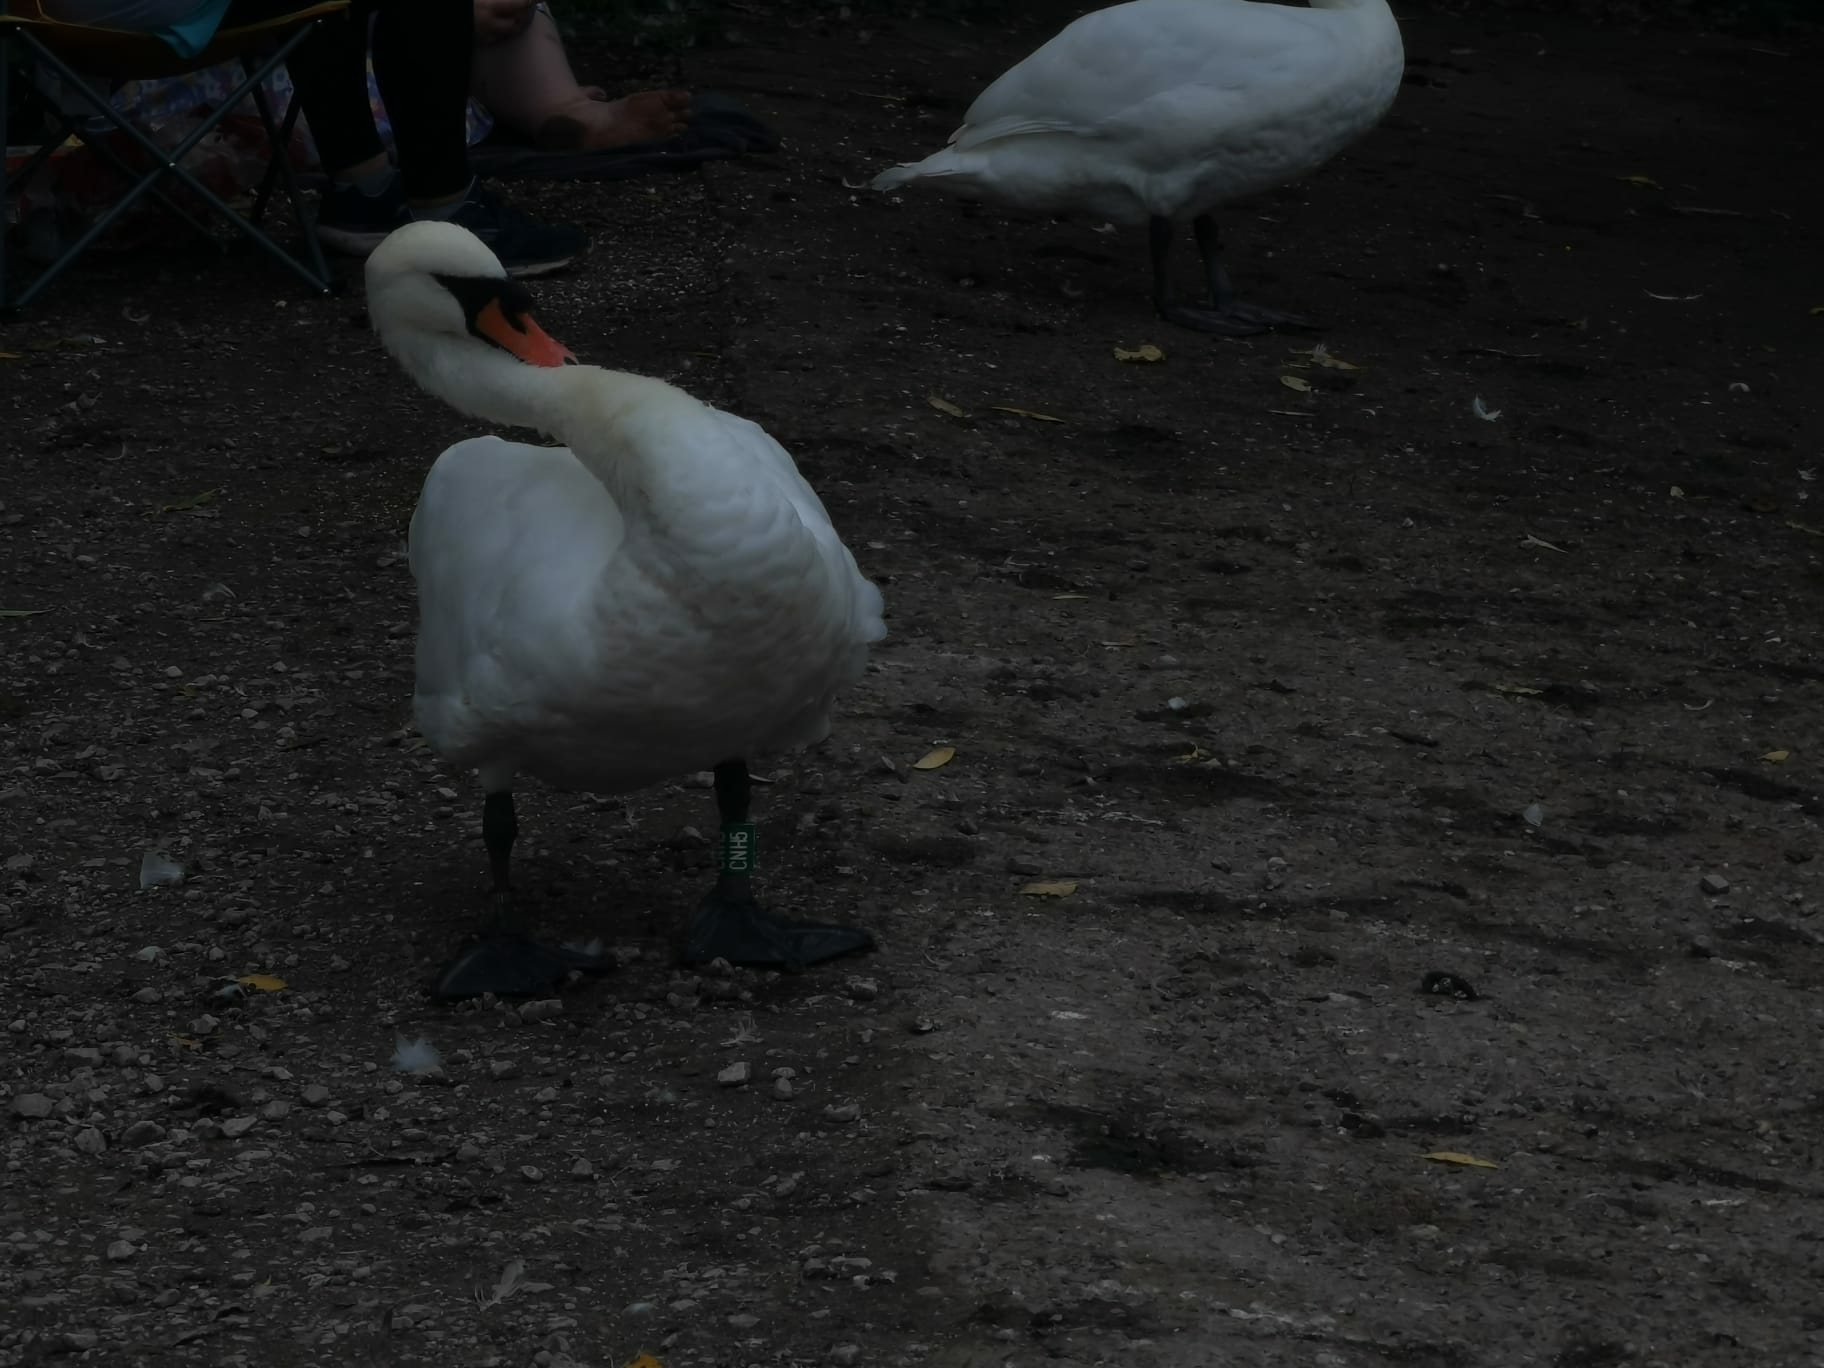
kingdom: Animalia
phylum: Chordata
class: Aves
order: Anseriformes
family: Anatidae
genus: Cygnus
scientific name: Cygnus olor
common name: Mute swan
